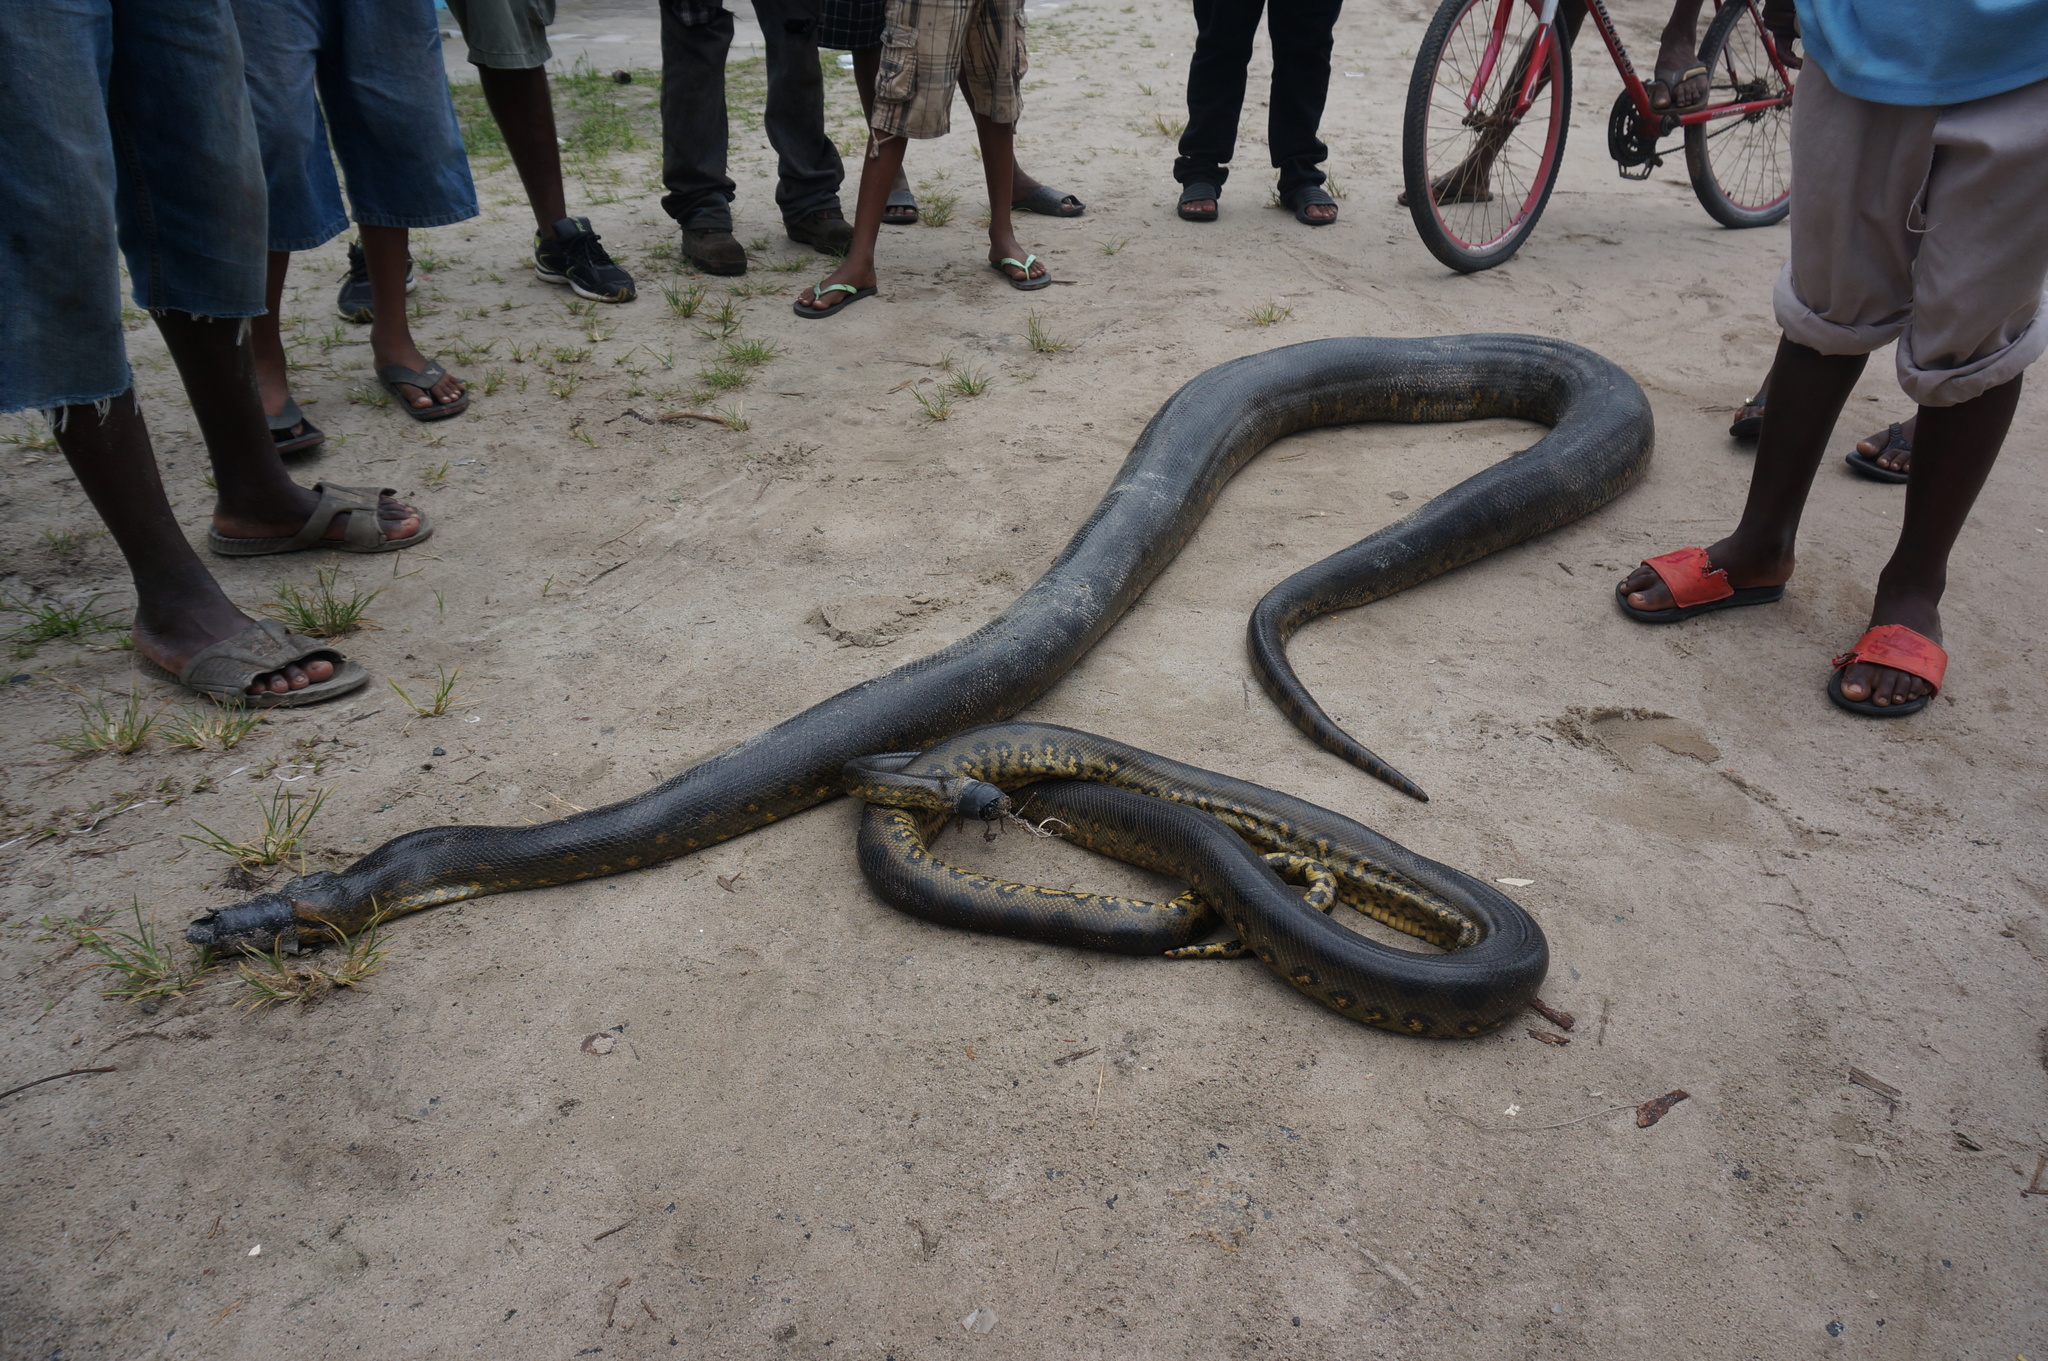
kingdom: Animalia
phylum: Chordata
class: Squamata
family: Boidae
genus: Eunectes
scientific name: Eunectes murinus
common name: Anaconda
